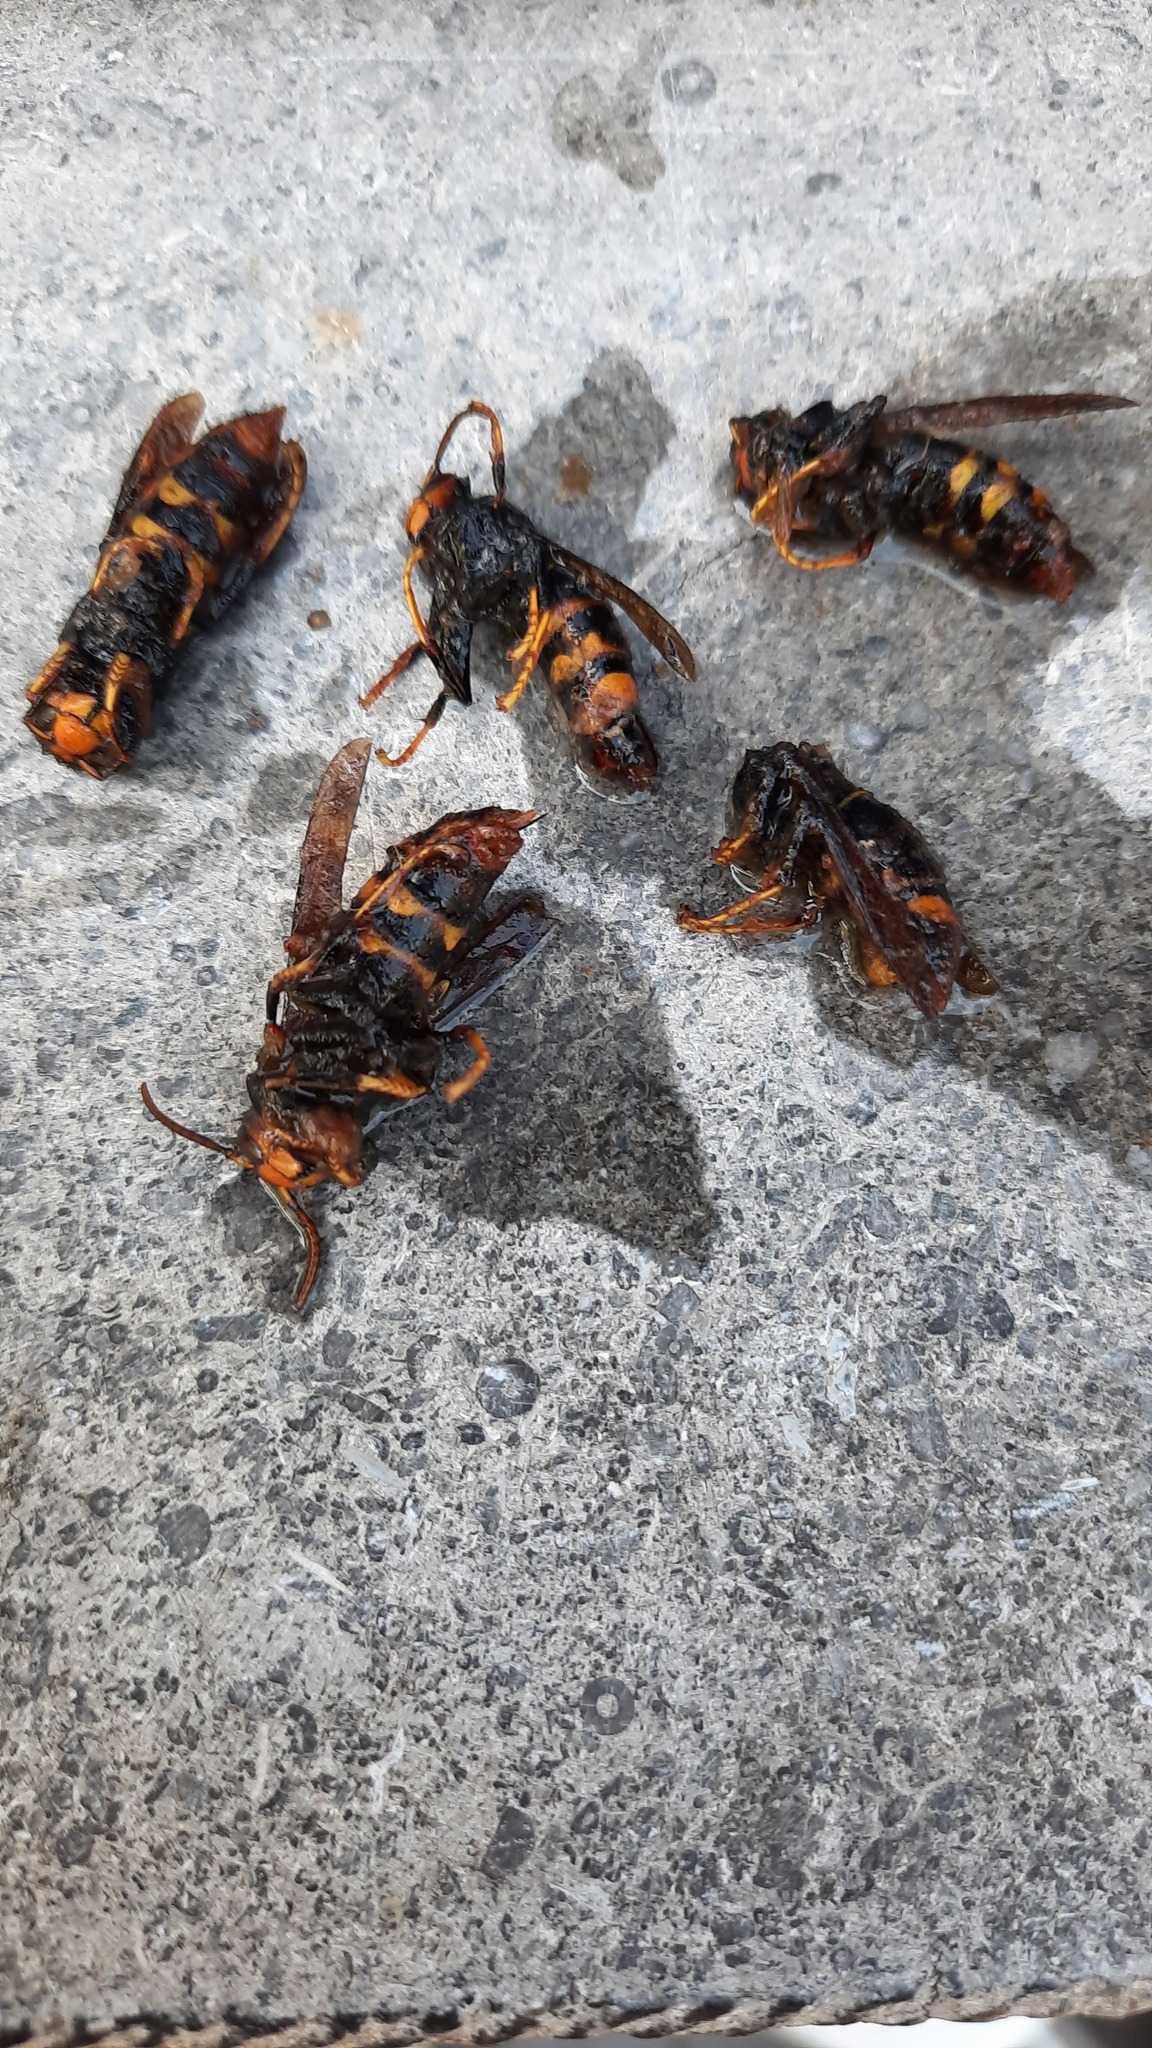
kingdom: Animalia
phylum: Arthropoda
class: Insecta
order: Hymenoptera
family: Vespidae
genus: Vespa
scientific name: Vespa velutina
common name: Asian hornet
